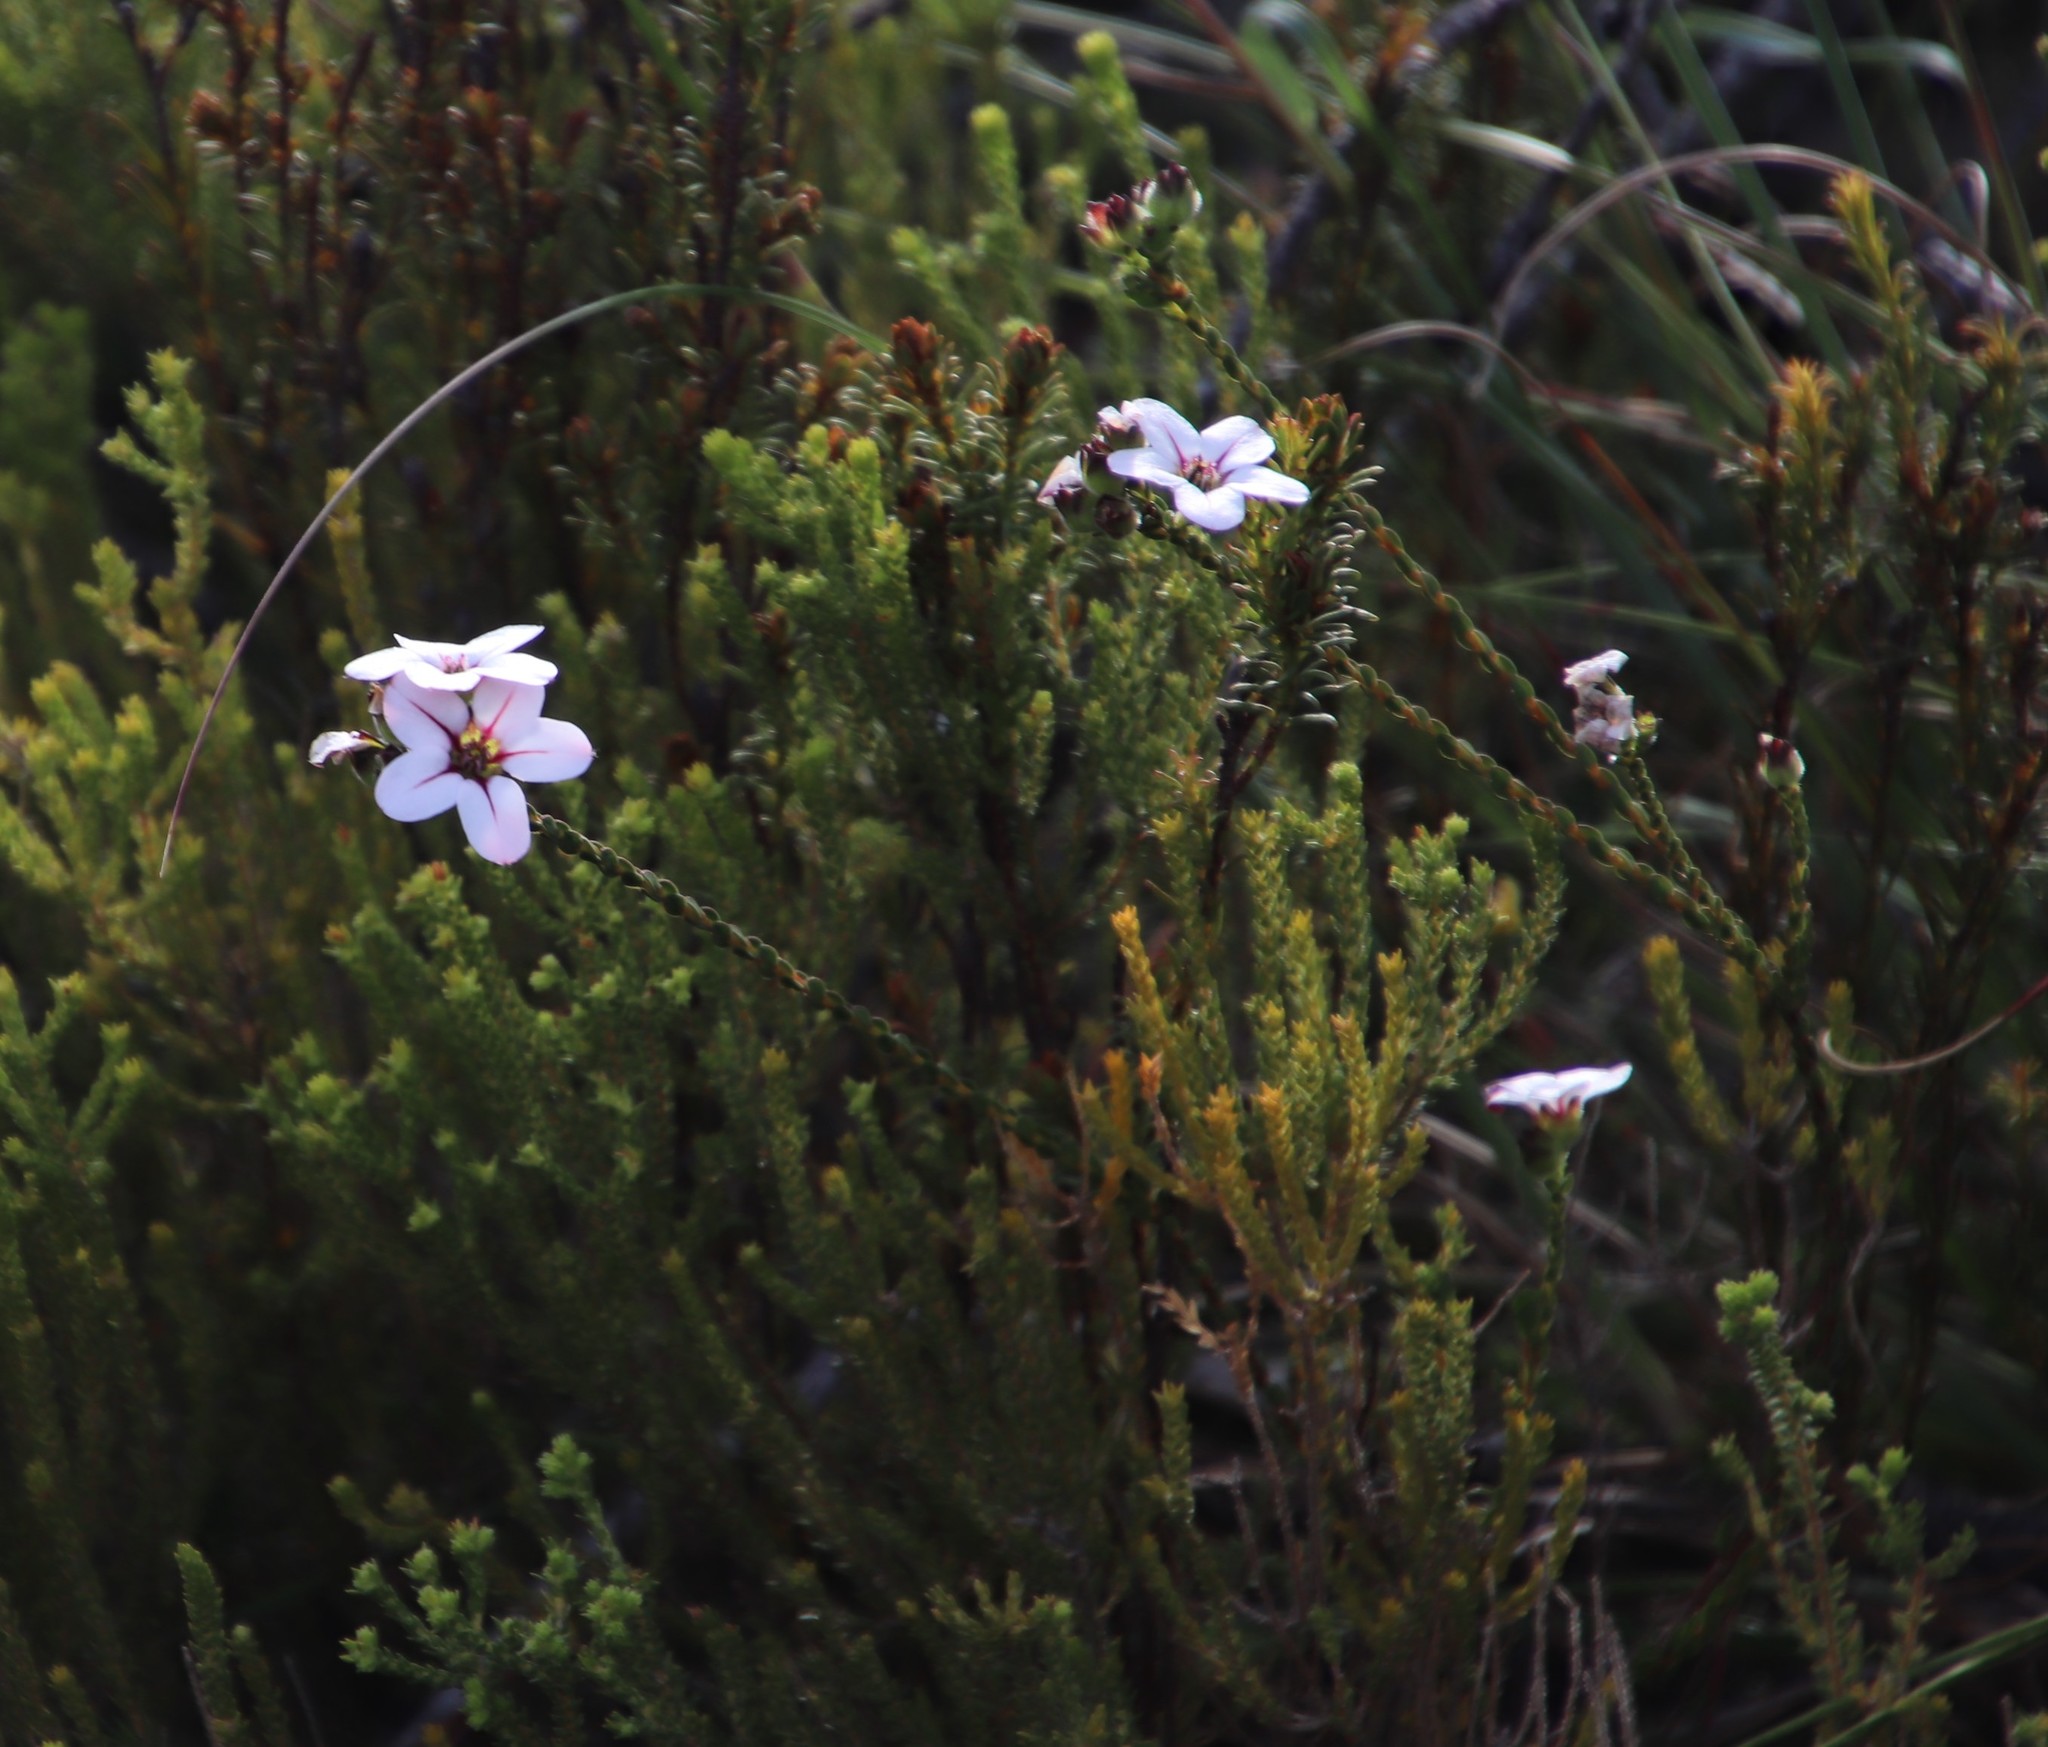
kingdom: Plantae
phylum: Tracheophyta
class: Magnoliopsida
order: Sapindales
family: Rutaceae
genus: Adenandra
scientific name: Adenandra villosa
